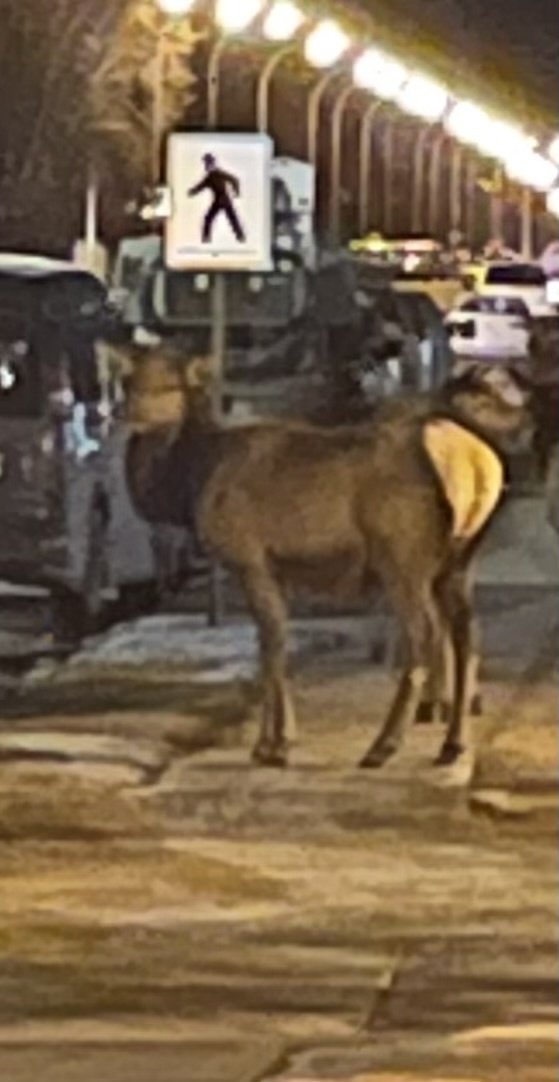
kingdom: Animalia
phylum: Chordata
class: Mammalia
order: Artiodactyla
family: Cervidae
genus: Cervus
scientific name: Cervus elaphus
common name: Red deer
